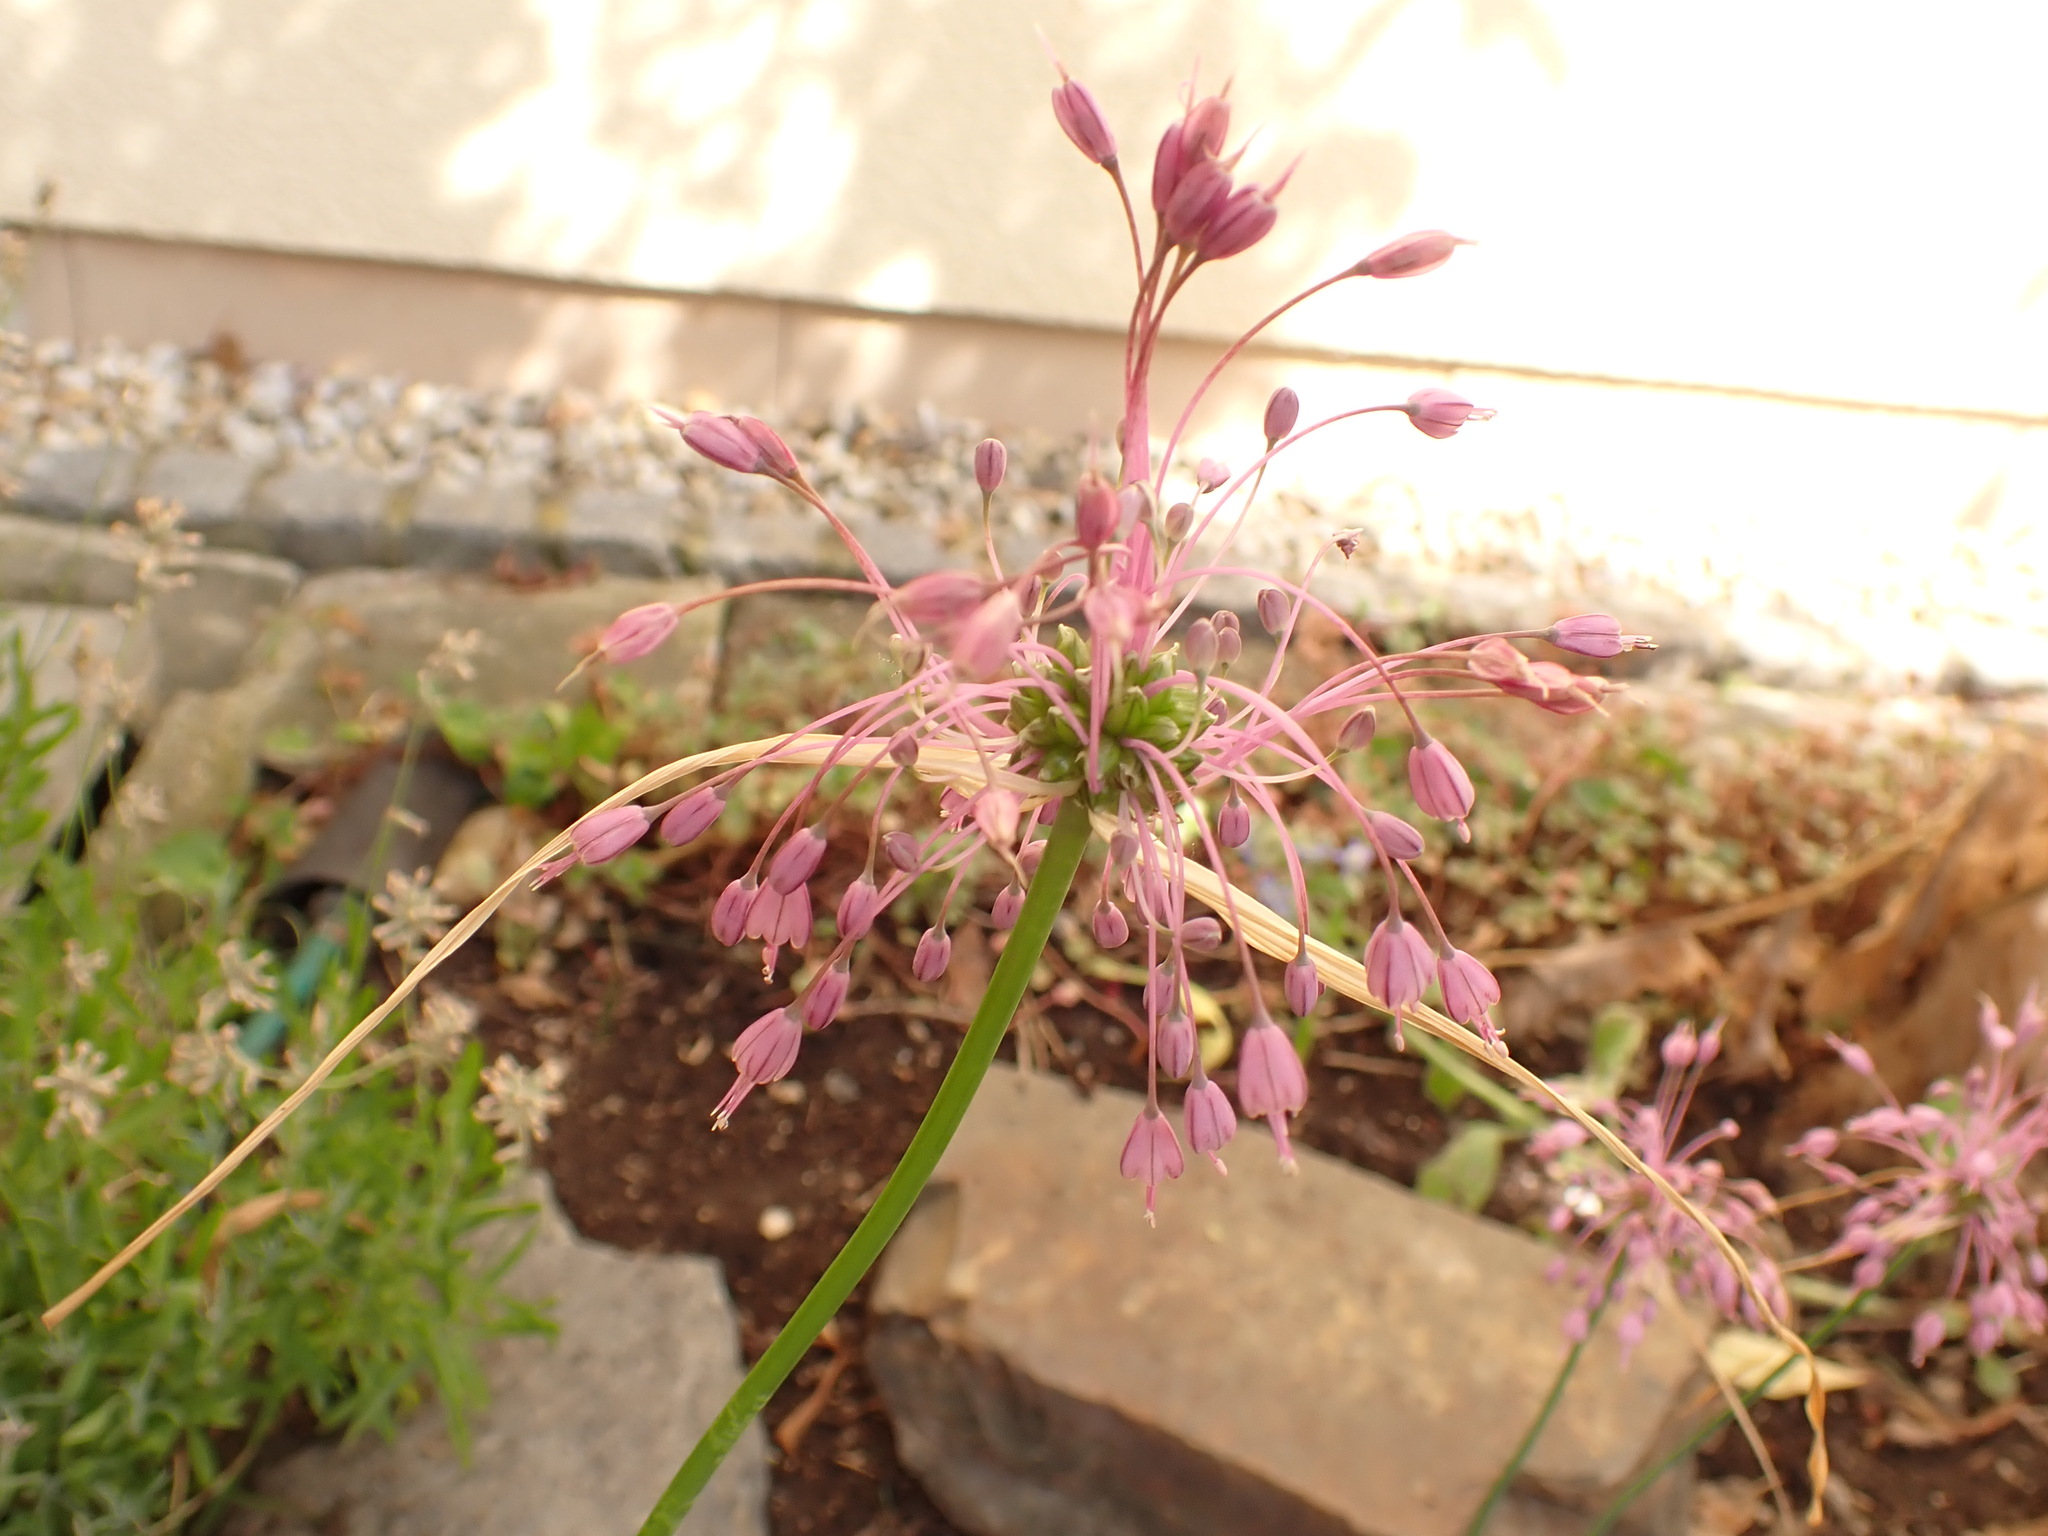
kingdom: Plantae
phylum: Tracheophyta
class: Liliopsida
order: Asparagales
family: Amaryllidaceae
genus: Allium
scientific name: Allium carinatum
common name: Keeled garlic
